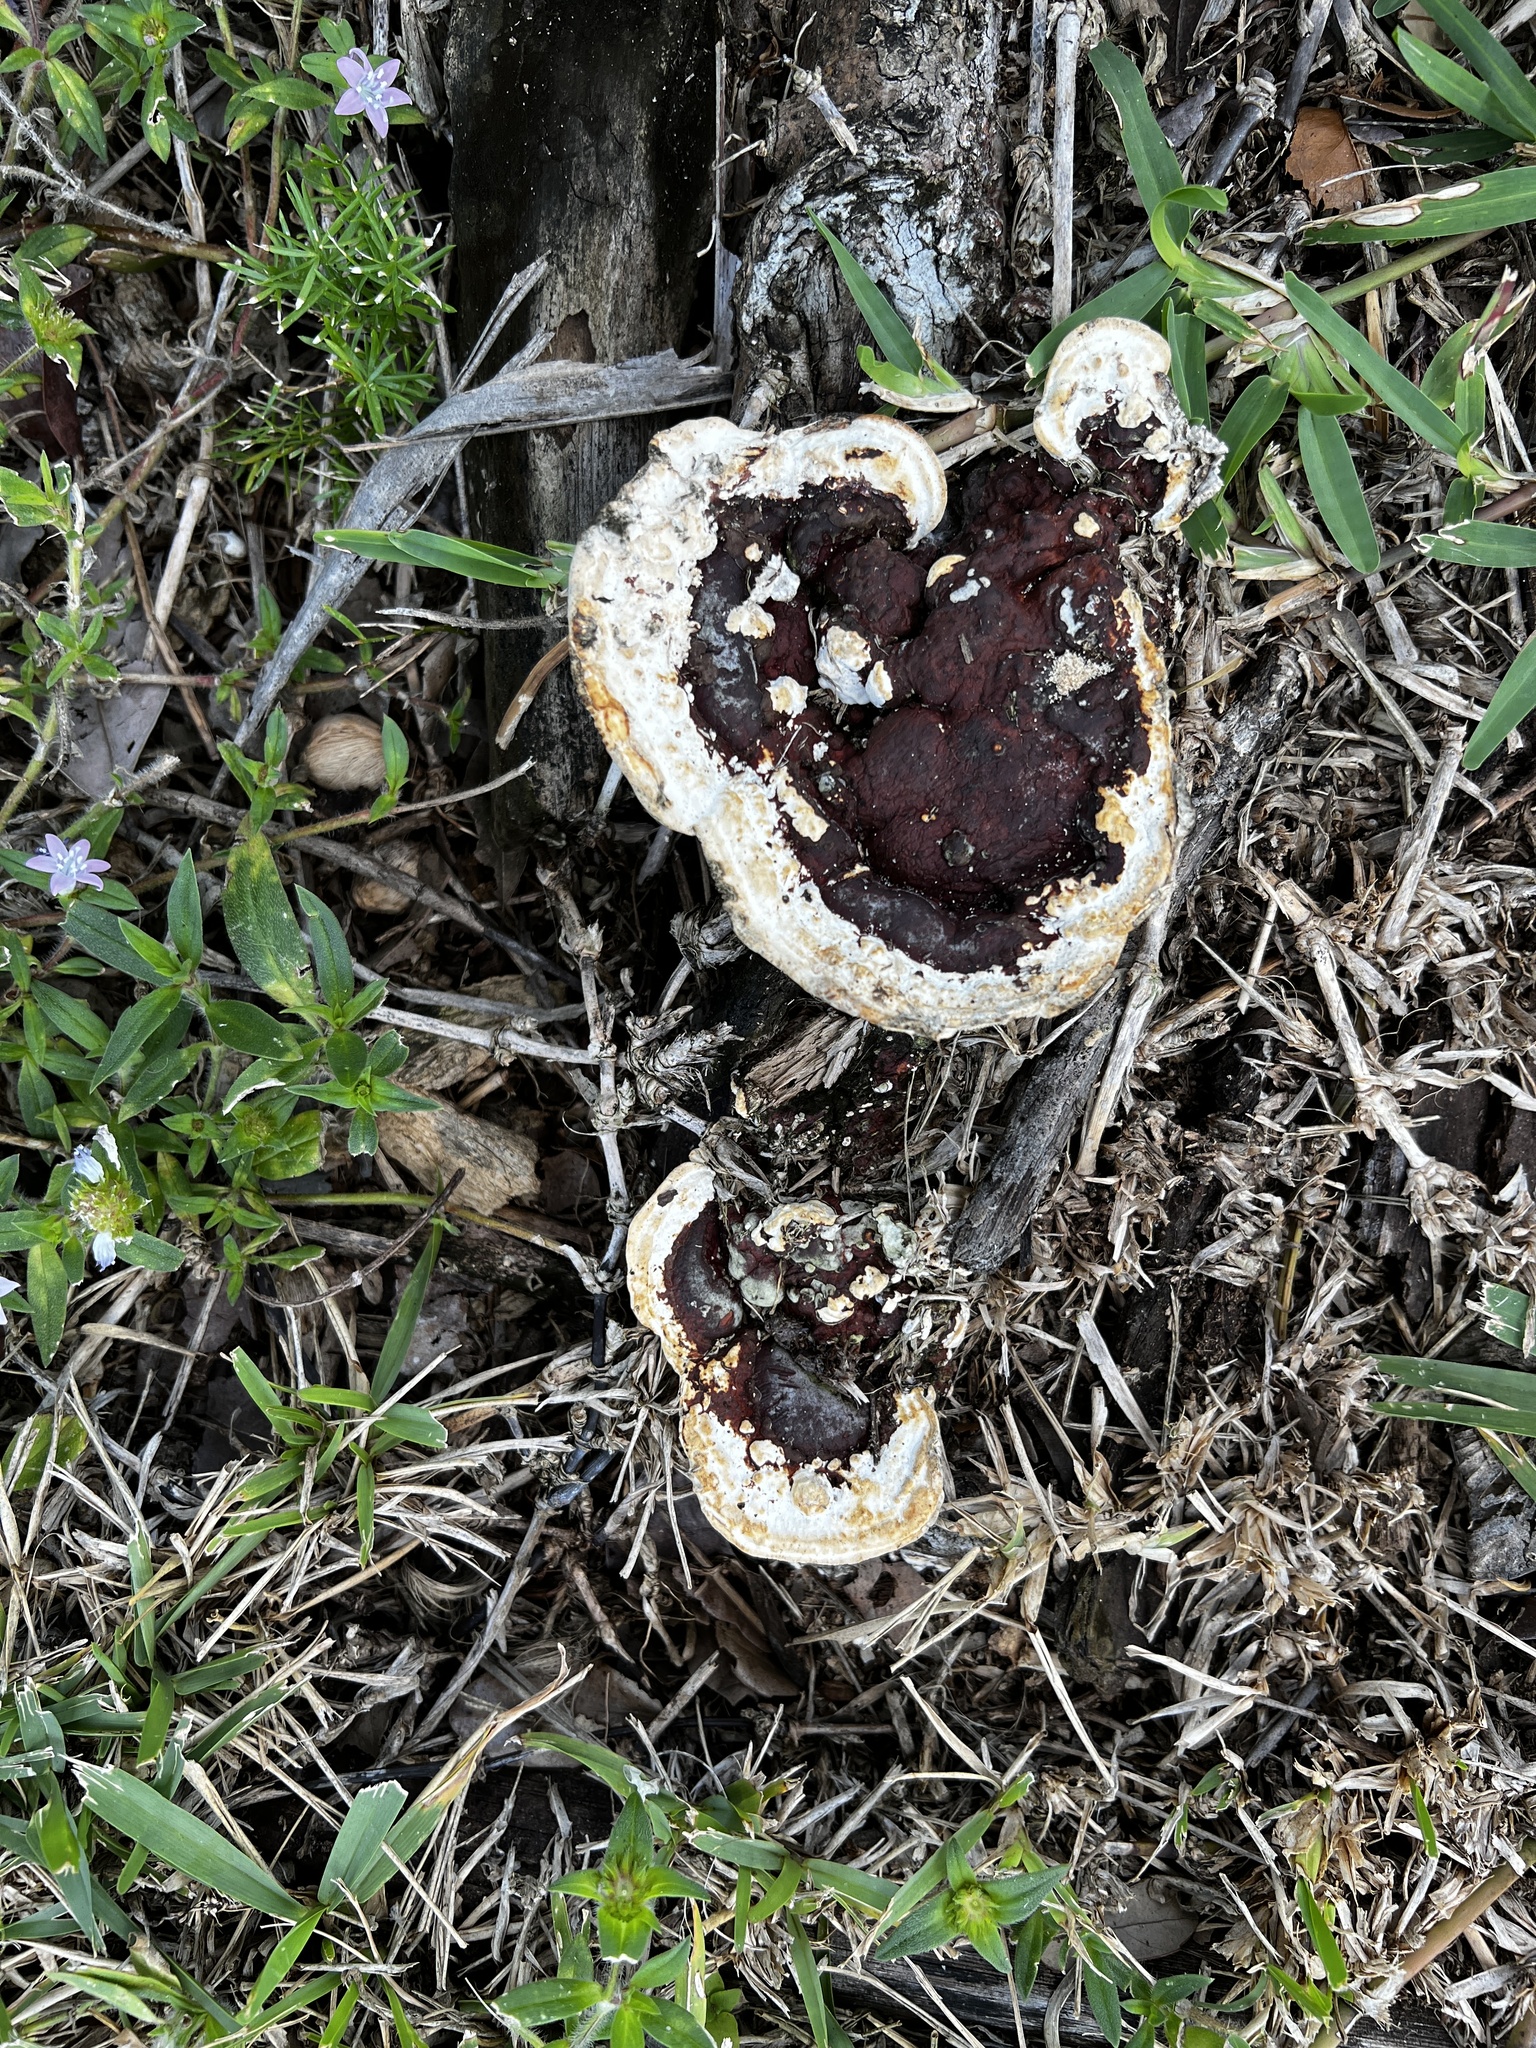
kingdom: Fungi
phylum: Basidiomycota
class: Agaricomycetes
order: Polyporales
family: Polyporaceae
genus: Earliella
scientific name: Earliella scabrosa
